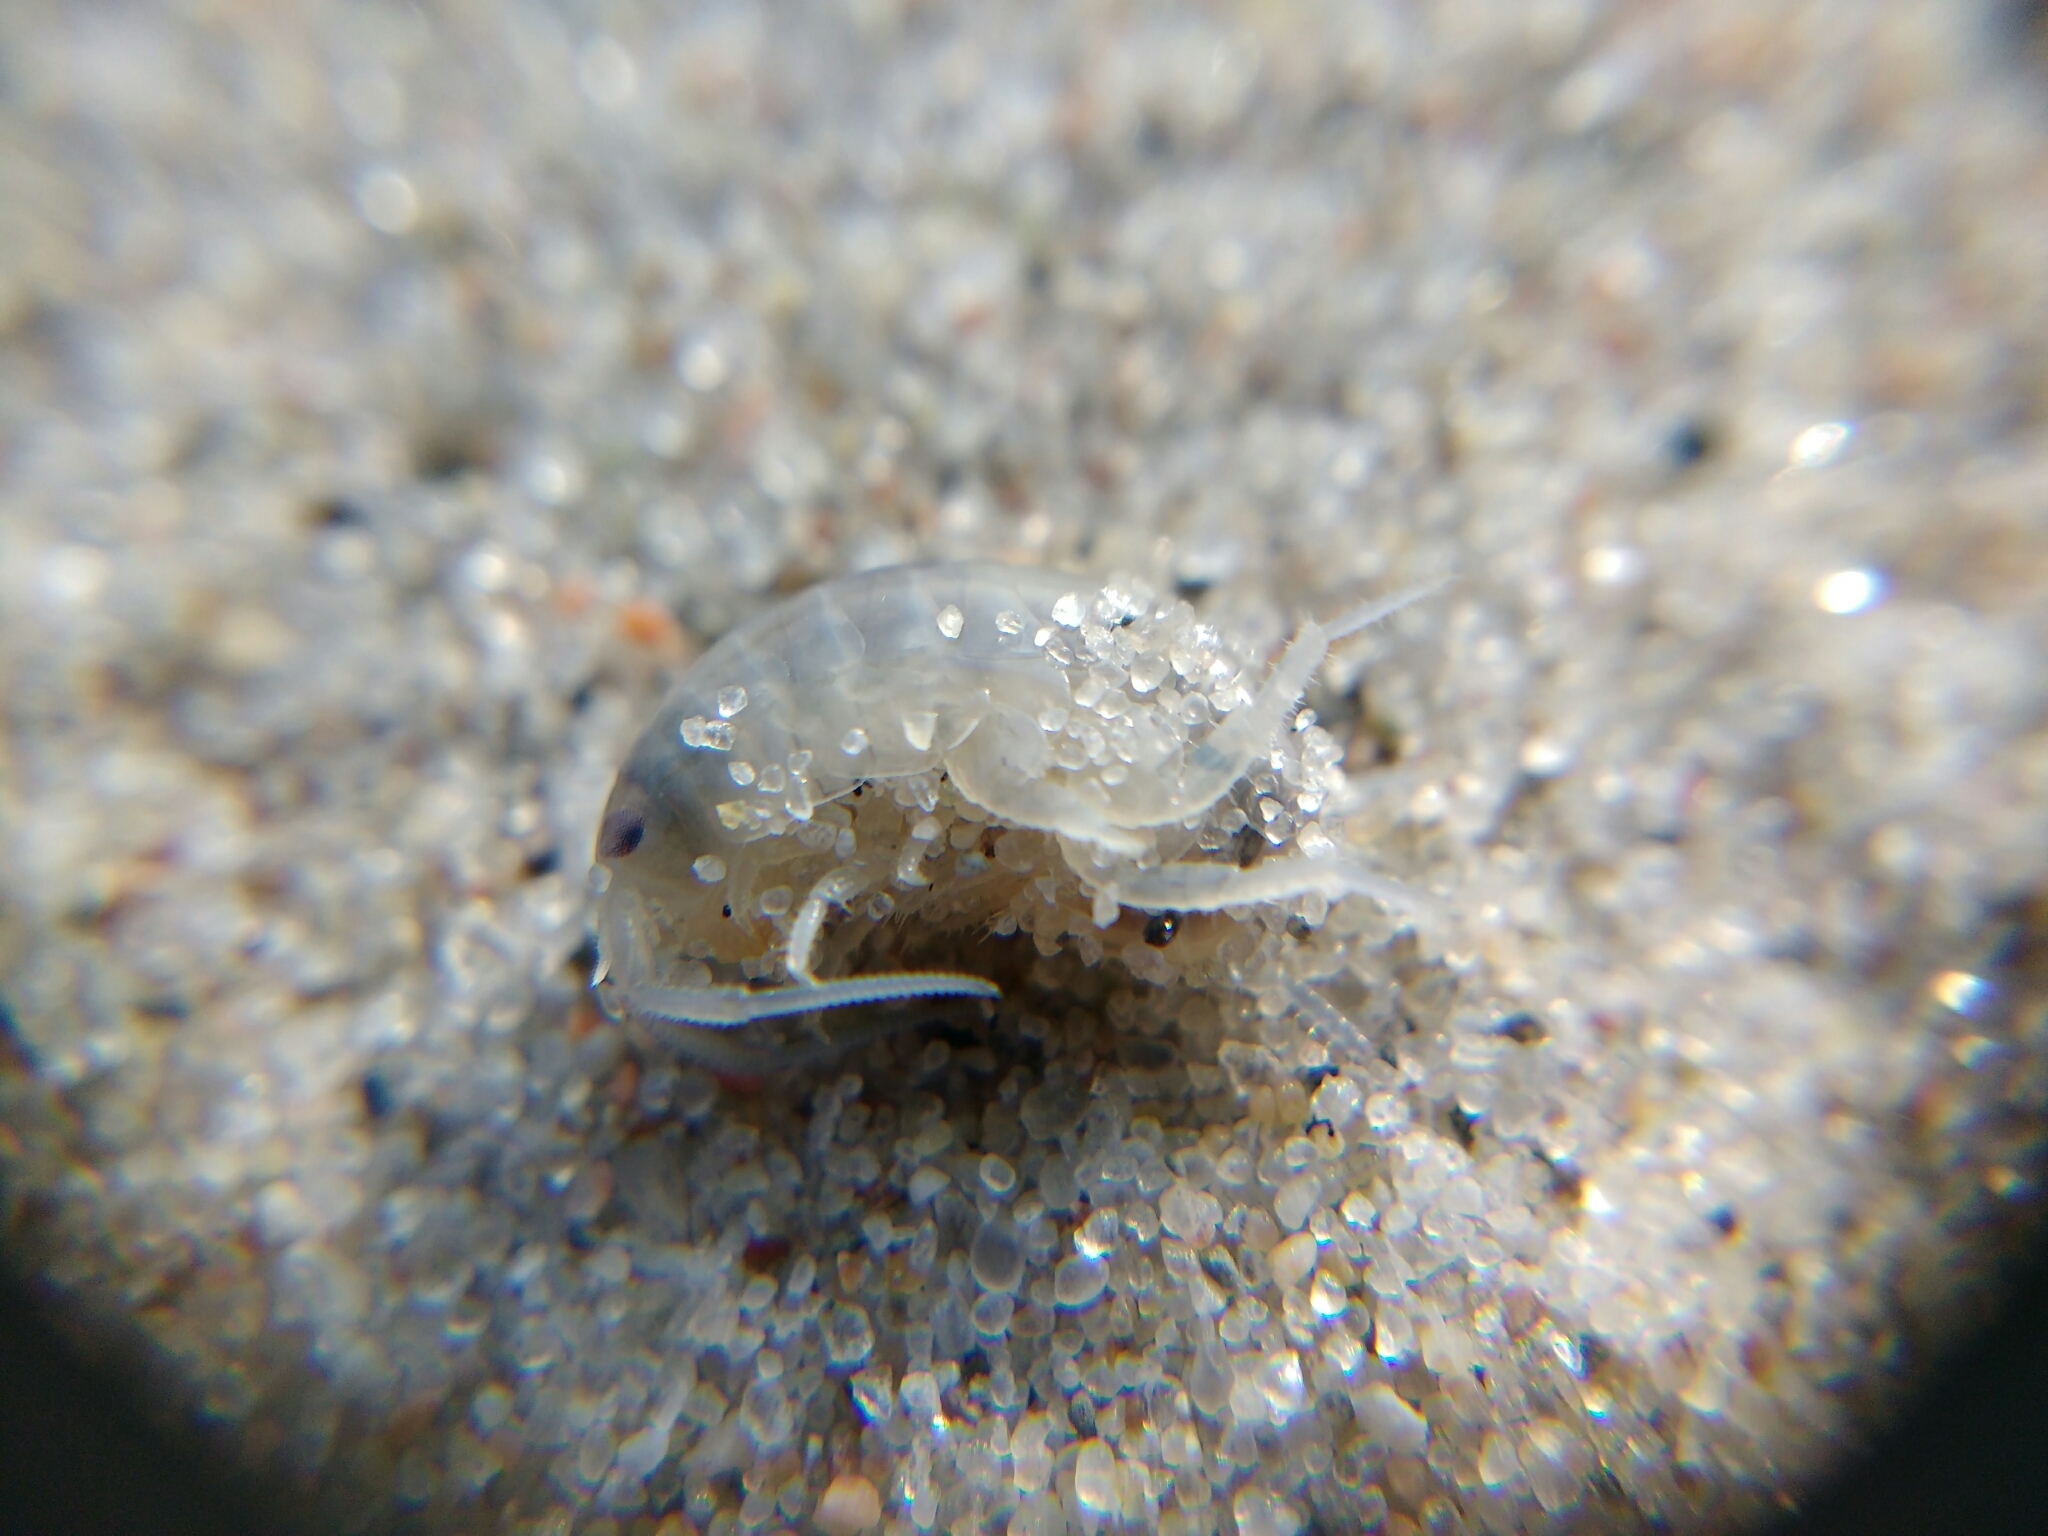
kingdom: Animalia
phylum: Arthropoda
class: Malacostraca
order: Amphipoda
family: Talitridae
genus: Talitrus
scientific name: Talitrus saltator
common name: Sand hopper
